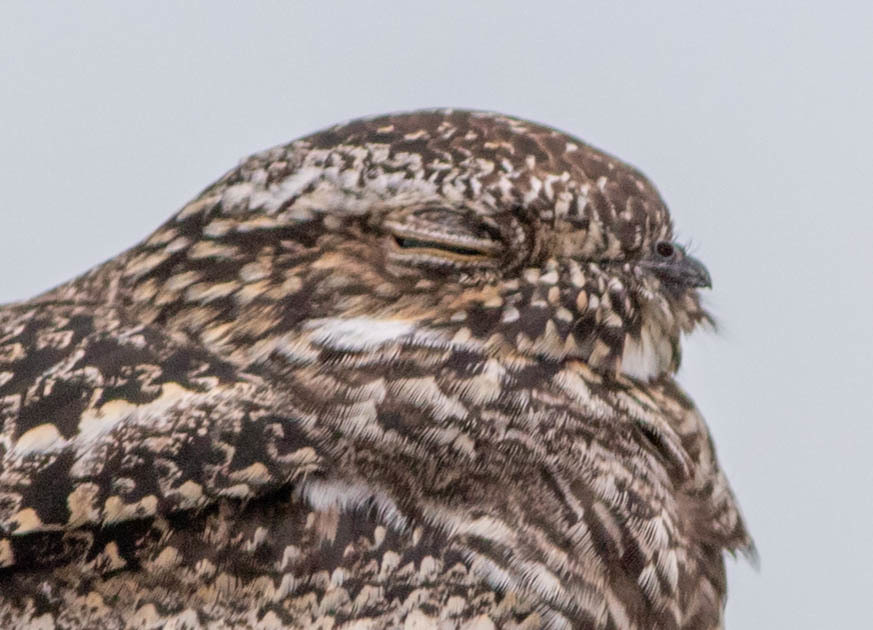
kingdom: Animalia
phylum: Chordata
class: Aves
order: Caprimulgiformes
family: Caprimulgidae
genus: Chordeiles
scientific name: Chordeiles minor
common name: Common nighthawk
